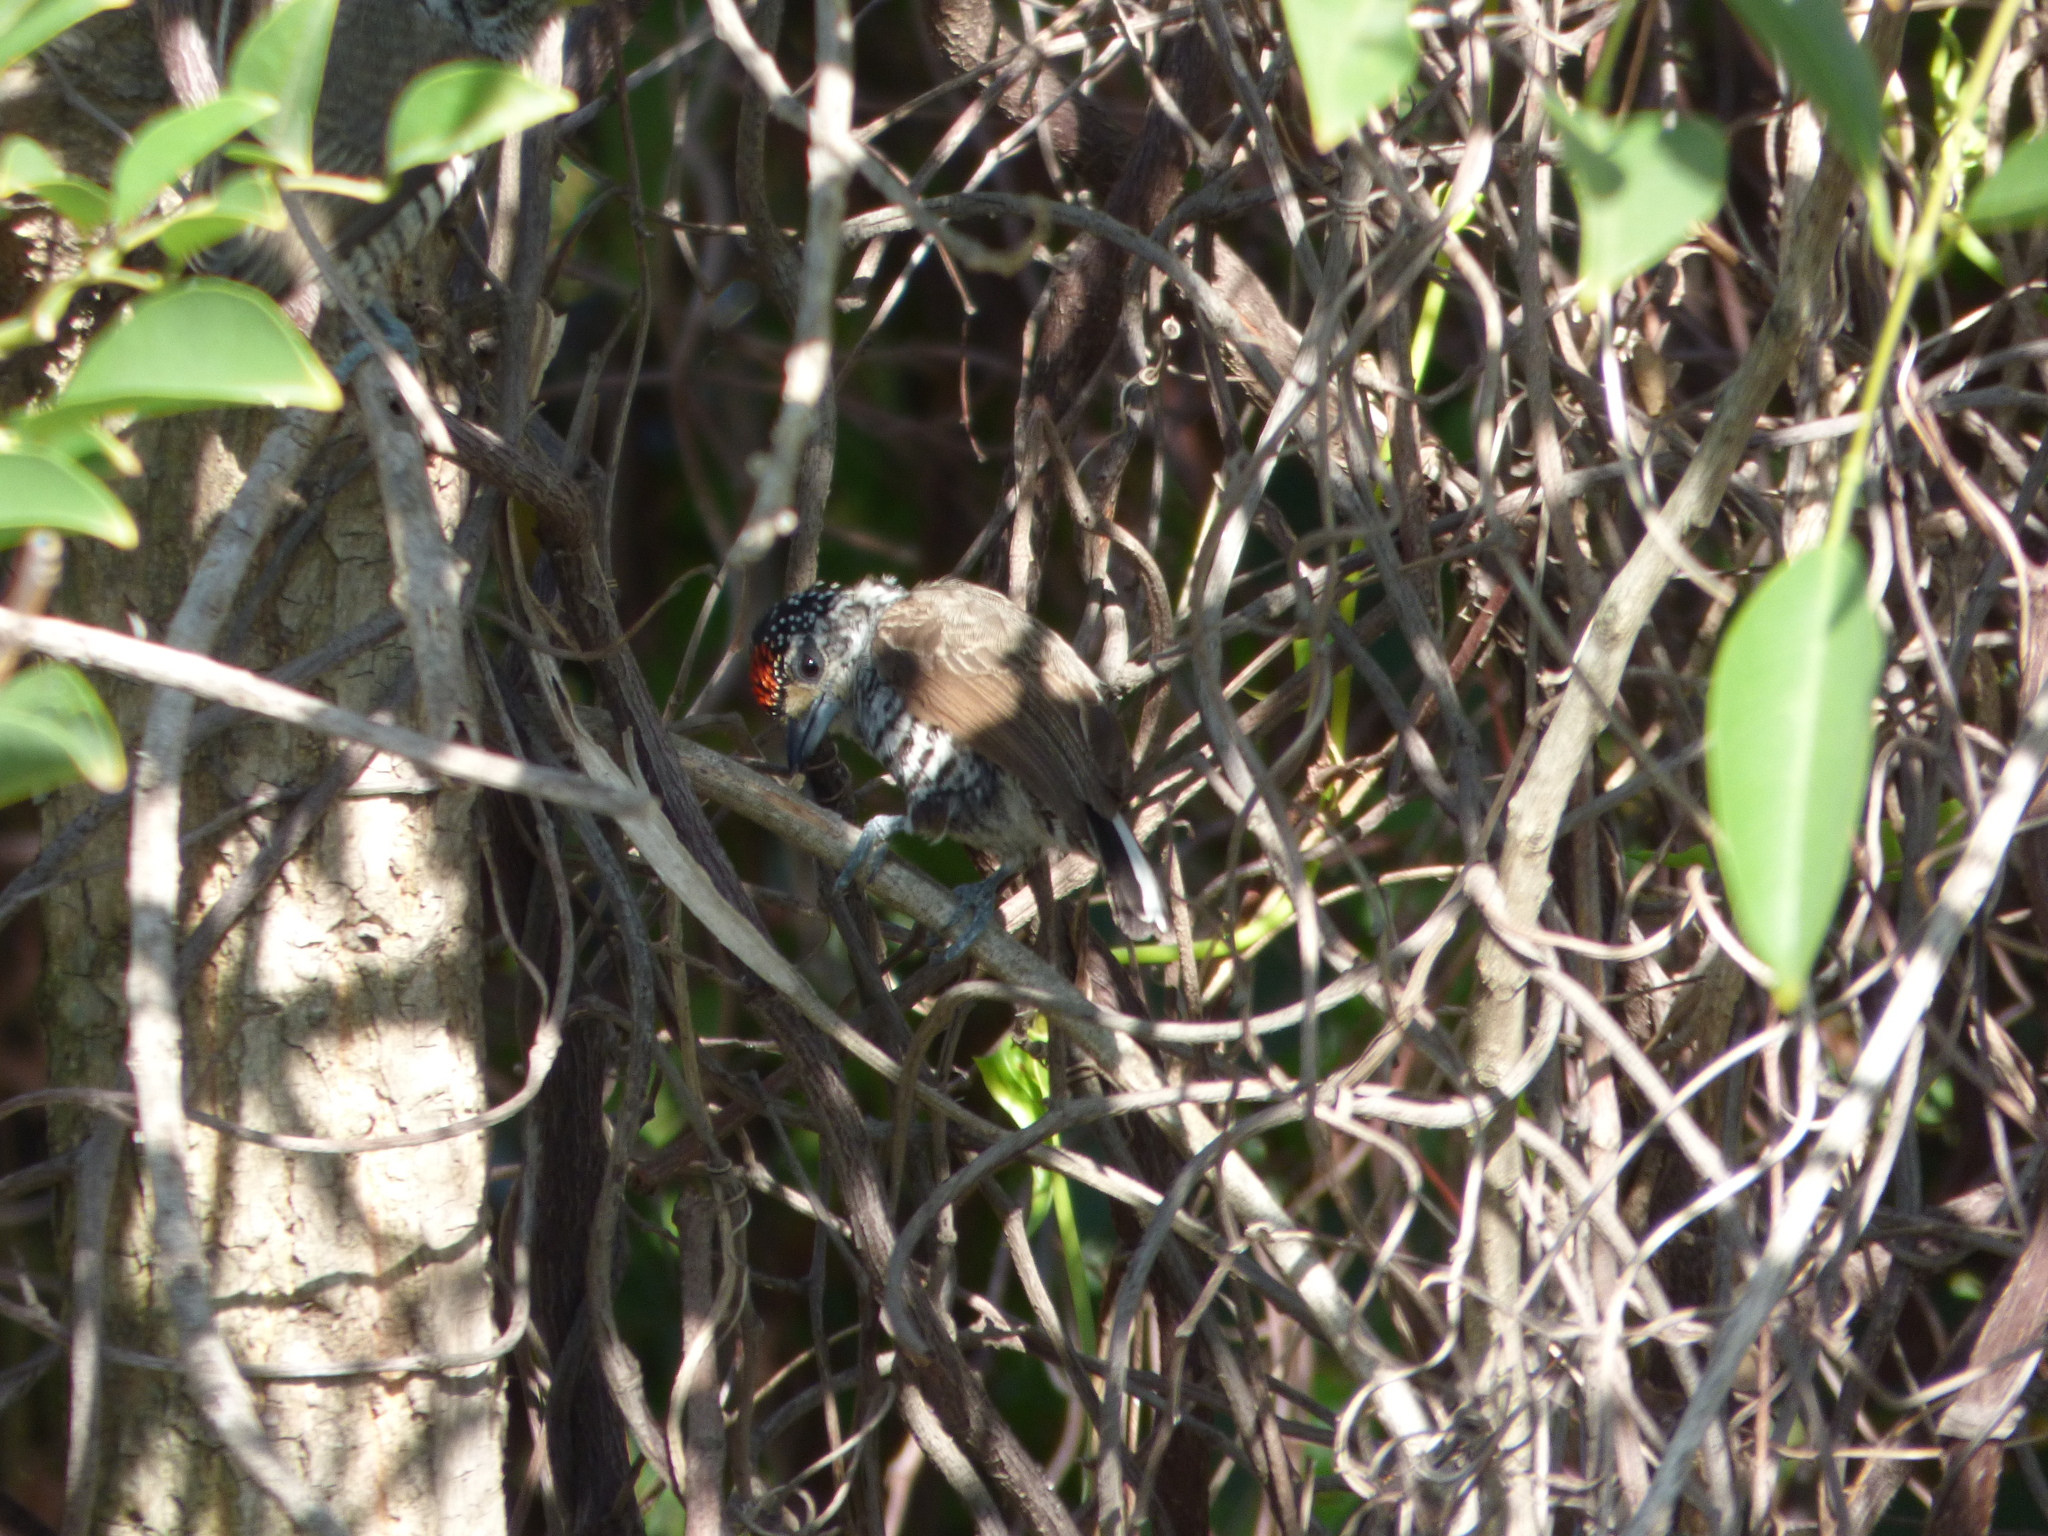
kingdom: Animalia
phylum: Chordata
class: Aves
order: Piciformes
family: Picidae
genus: Picumnus
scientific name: Picumnus cirratus
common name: White-barred piculet
